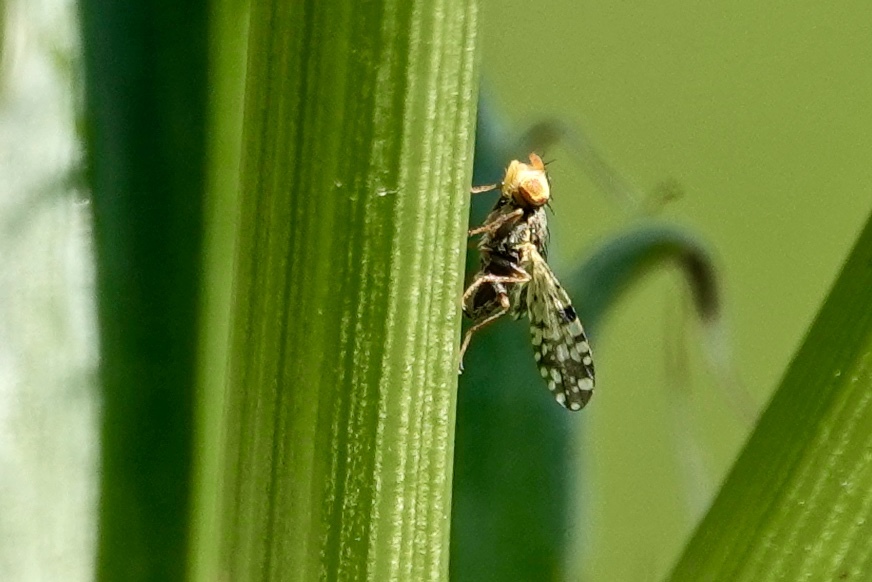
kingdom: Animalia
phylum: Arthropoda
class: Insecta
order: Diptera
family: Tephritidae
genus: Dioxyna
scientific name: Dioxyna picciola
